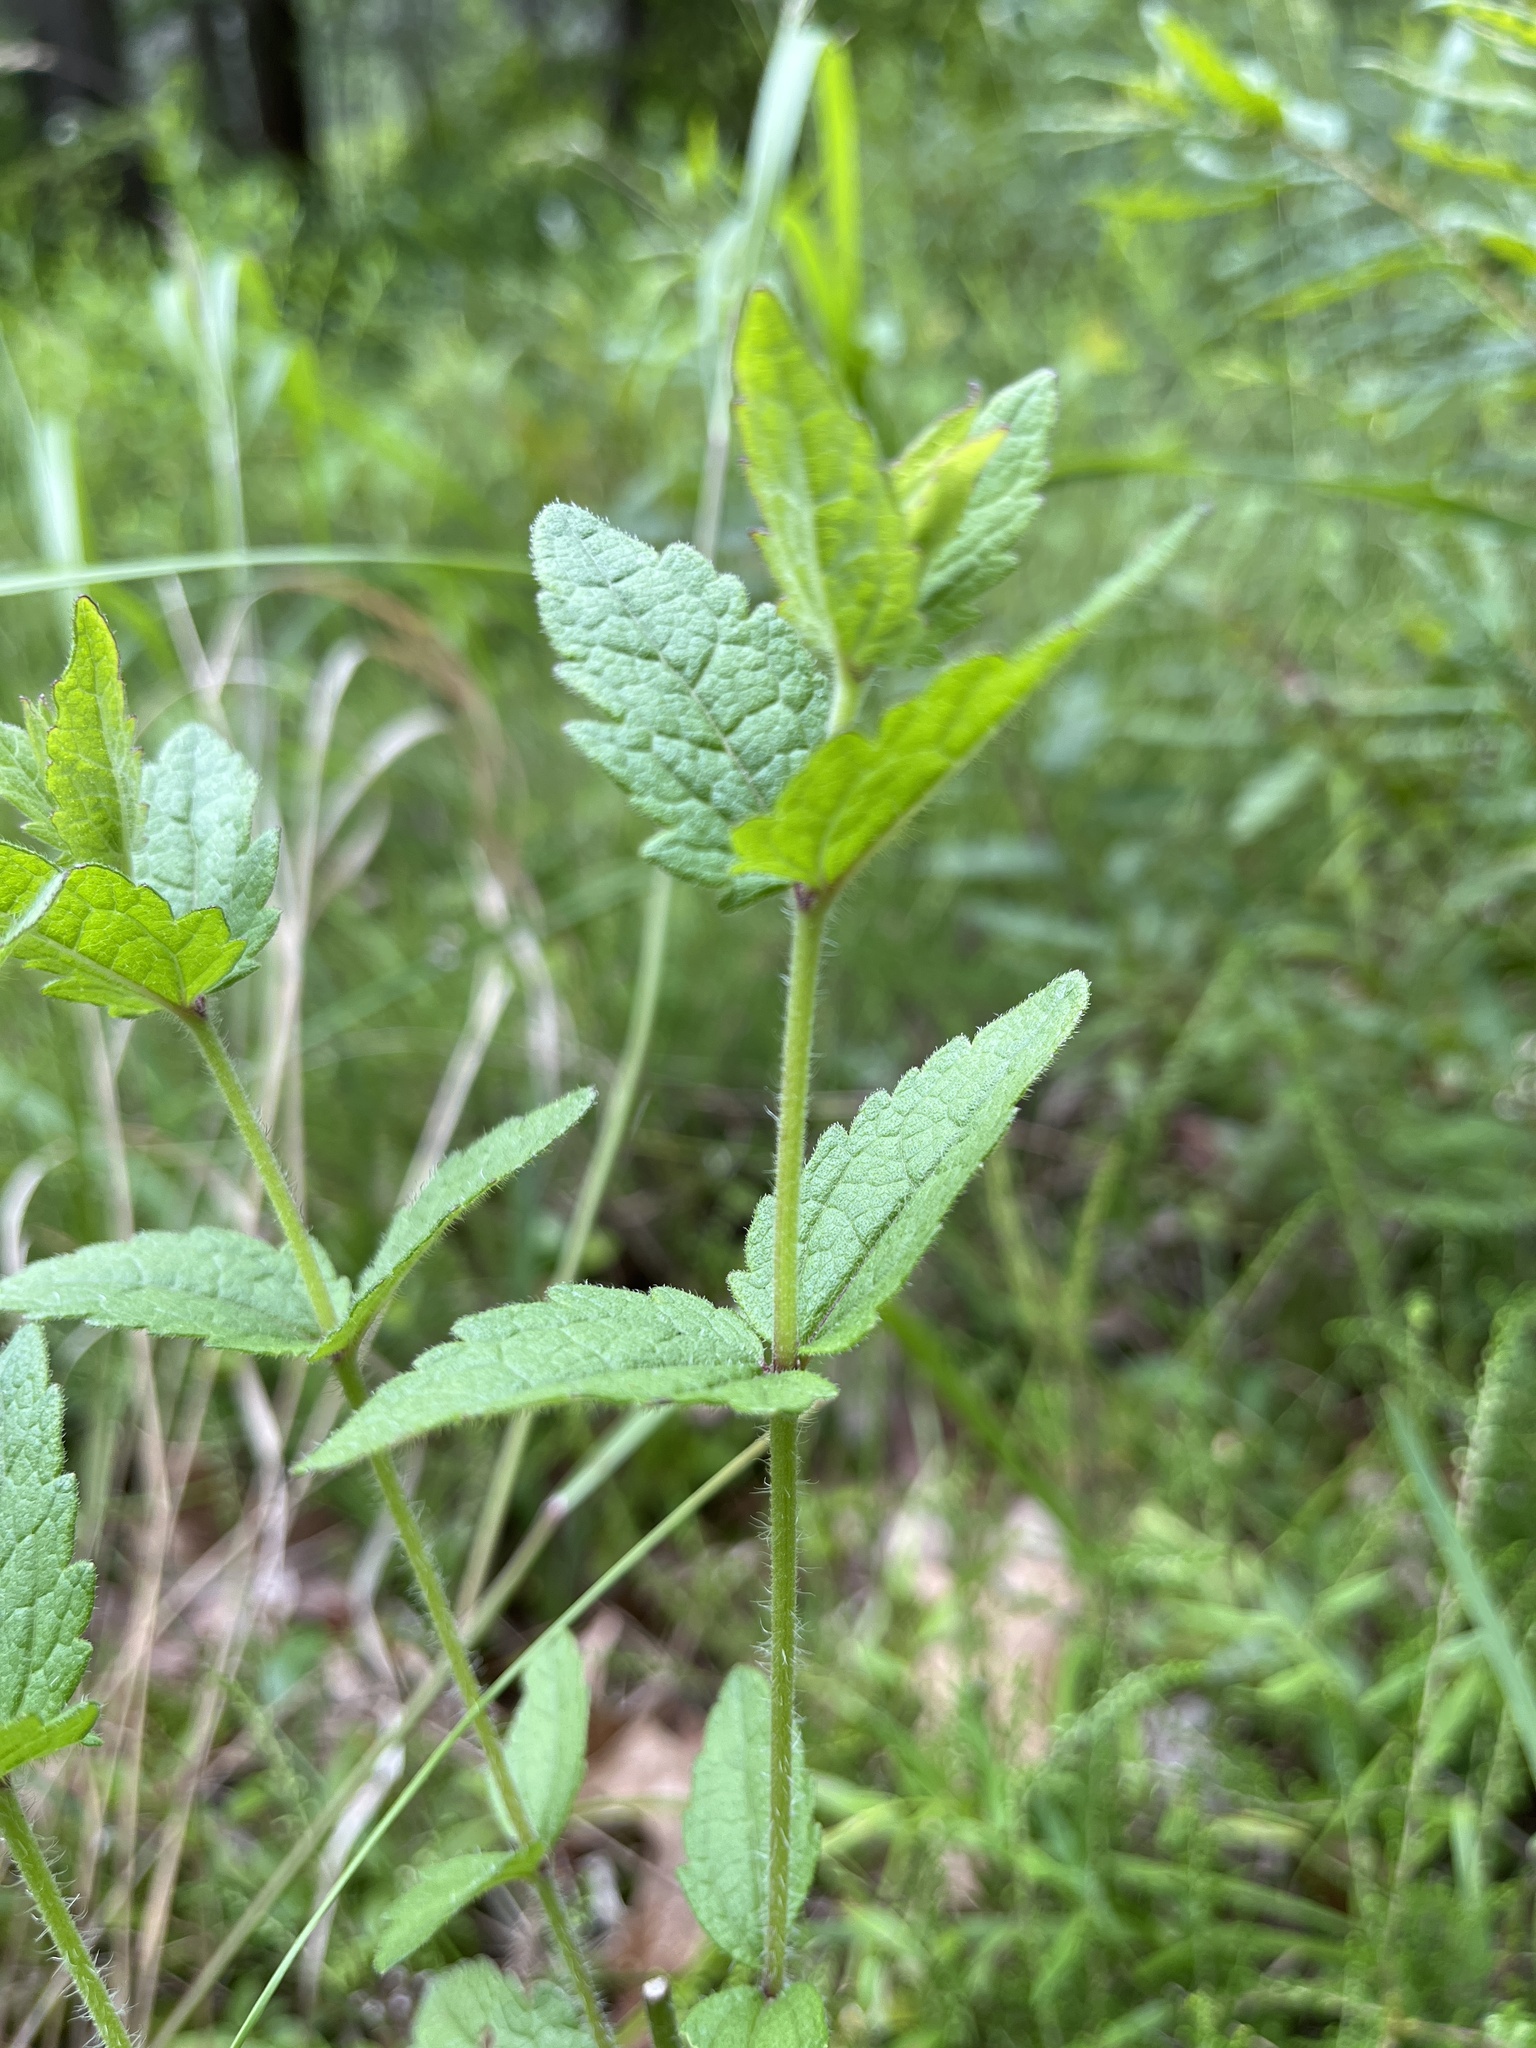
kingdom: Plantae
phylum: Tracheophyta
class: Magnoliopsida
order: Asterales
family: Asteraceae
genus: Eupatorium
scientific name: Eupatorium pilosum
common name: Rough boneset
